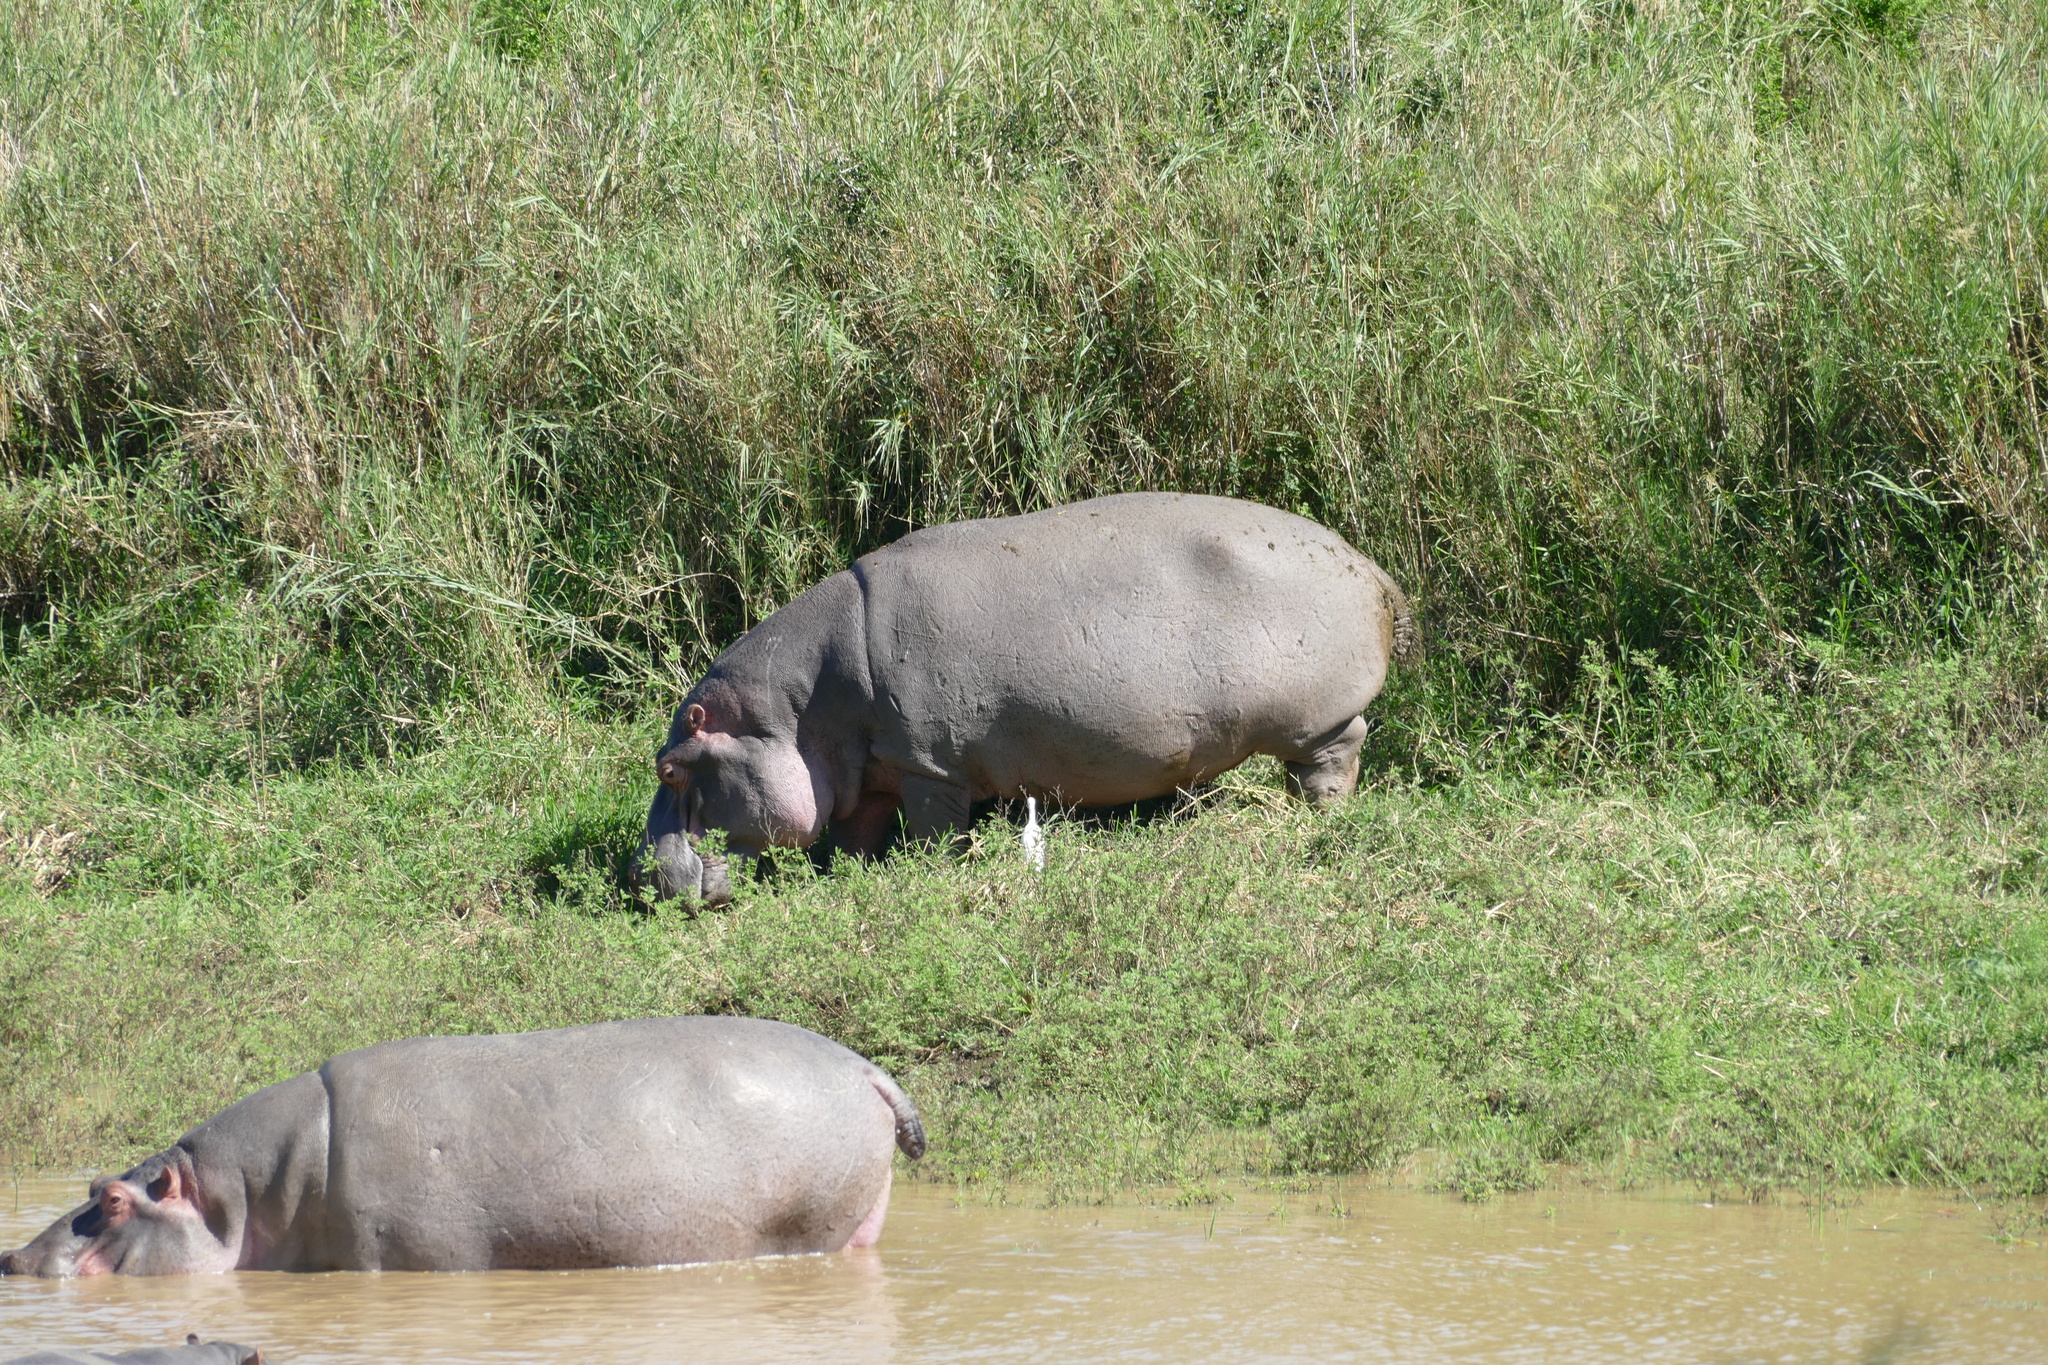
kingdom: Animalia
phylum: Chordata
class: Mammalia
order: Artiodactyla
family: Hippopotamidae
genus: Hippopotamus
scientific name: Hippopotamus amphibius
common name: Common hippopotamus
